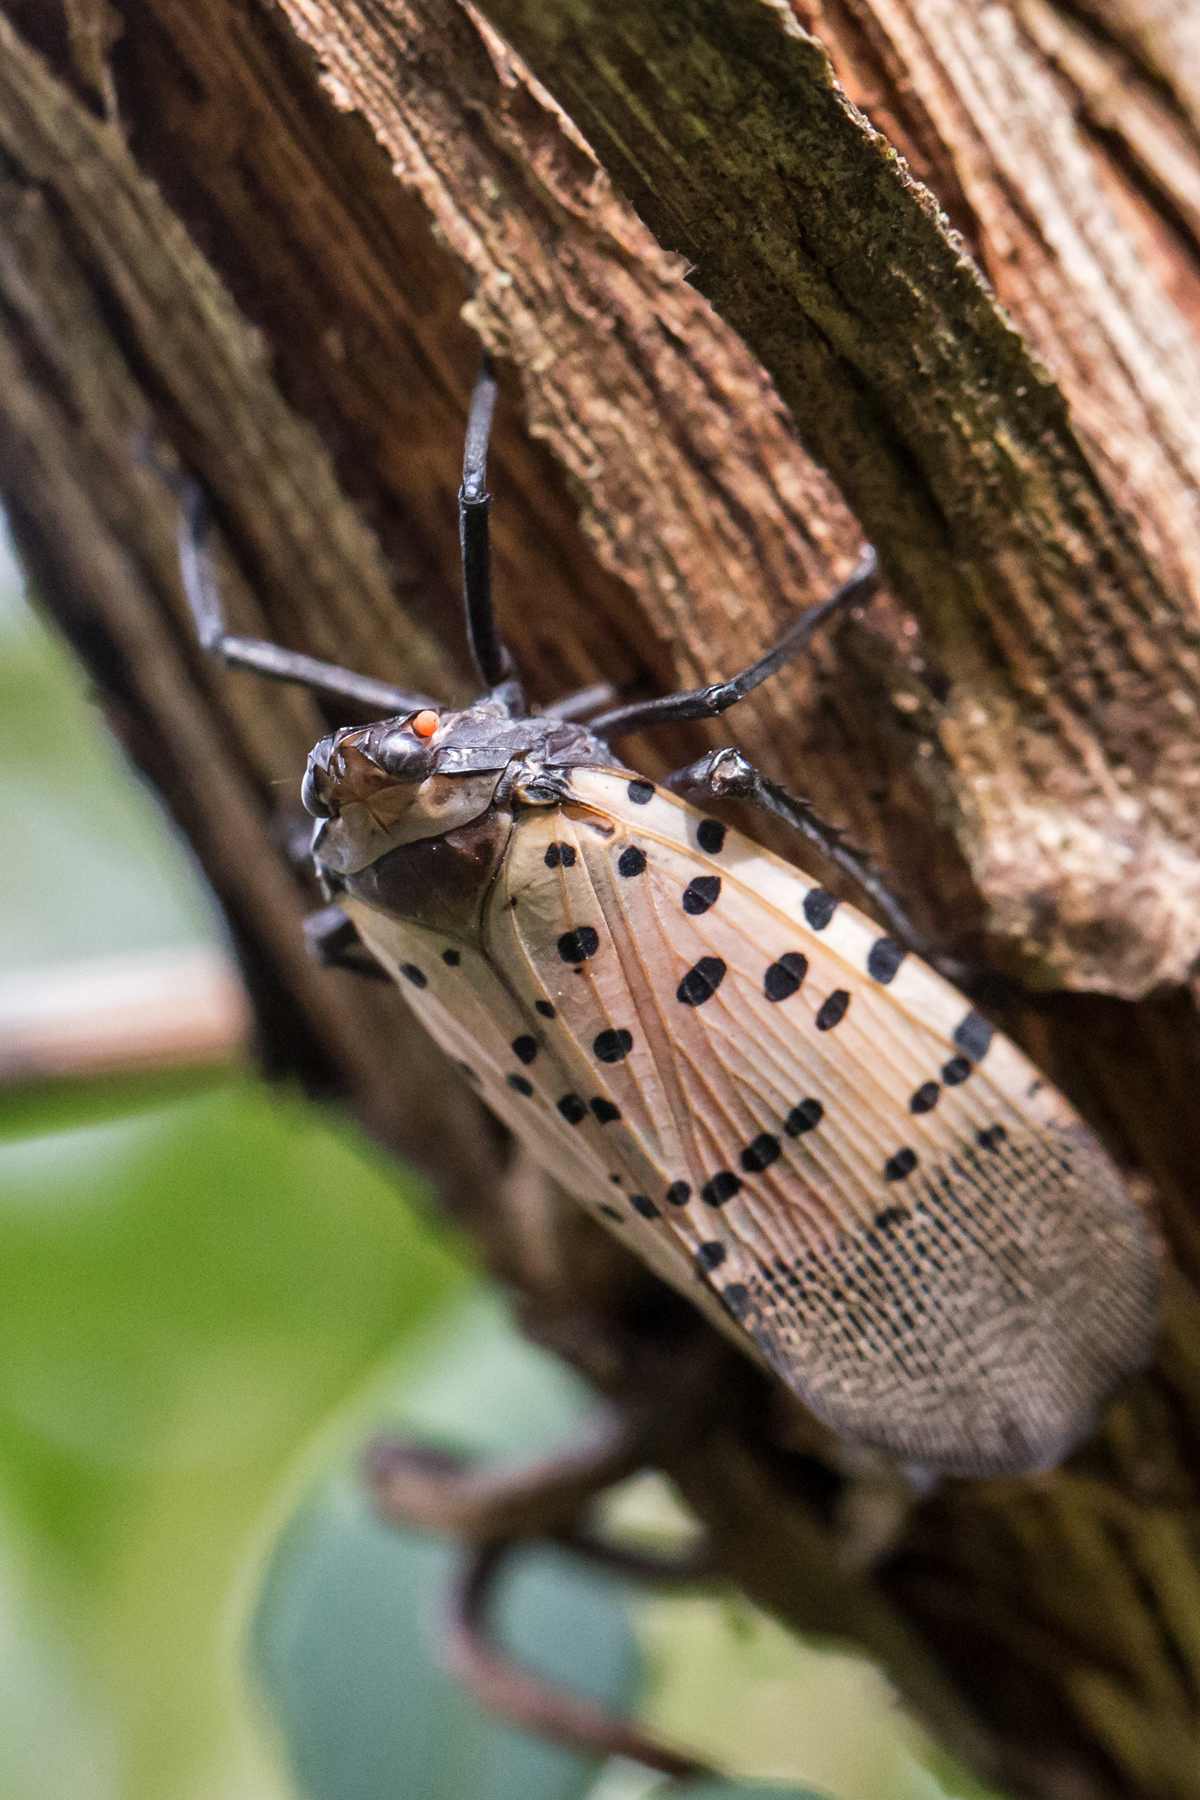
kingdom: Animalia
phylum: Arthropoda
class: Insecta
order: Hemiptera
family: Fulgoridae
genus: Lycorma
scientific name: Lycorma delicatula
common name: Spotted lanternfly
